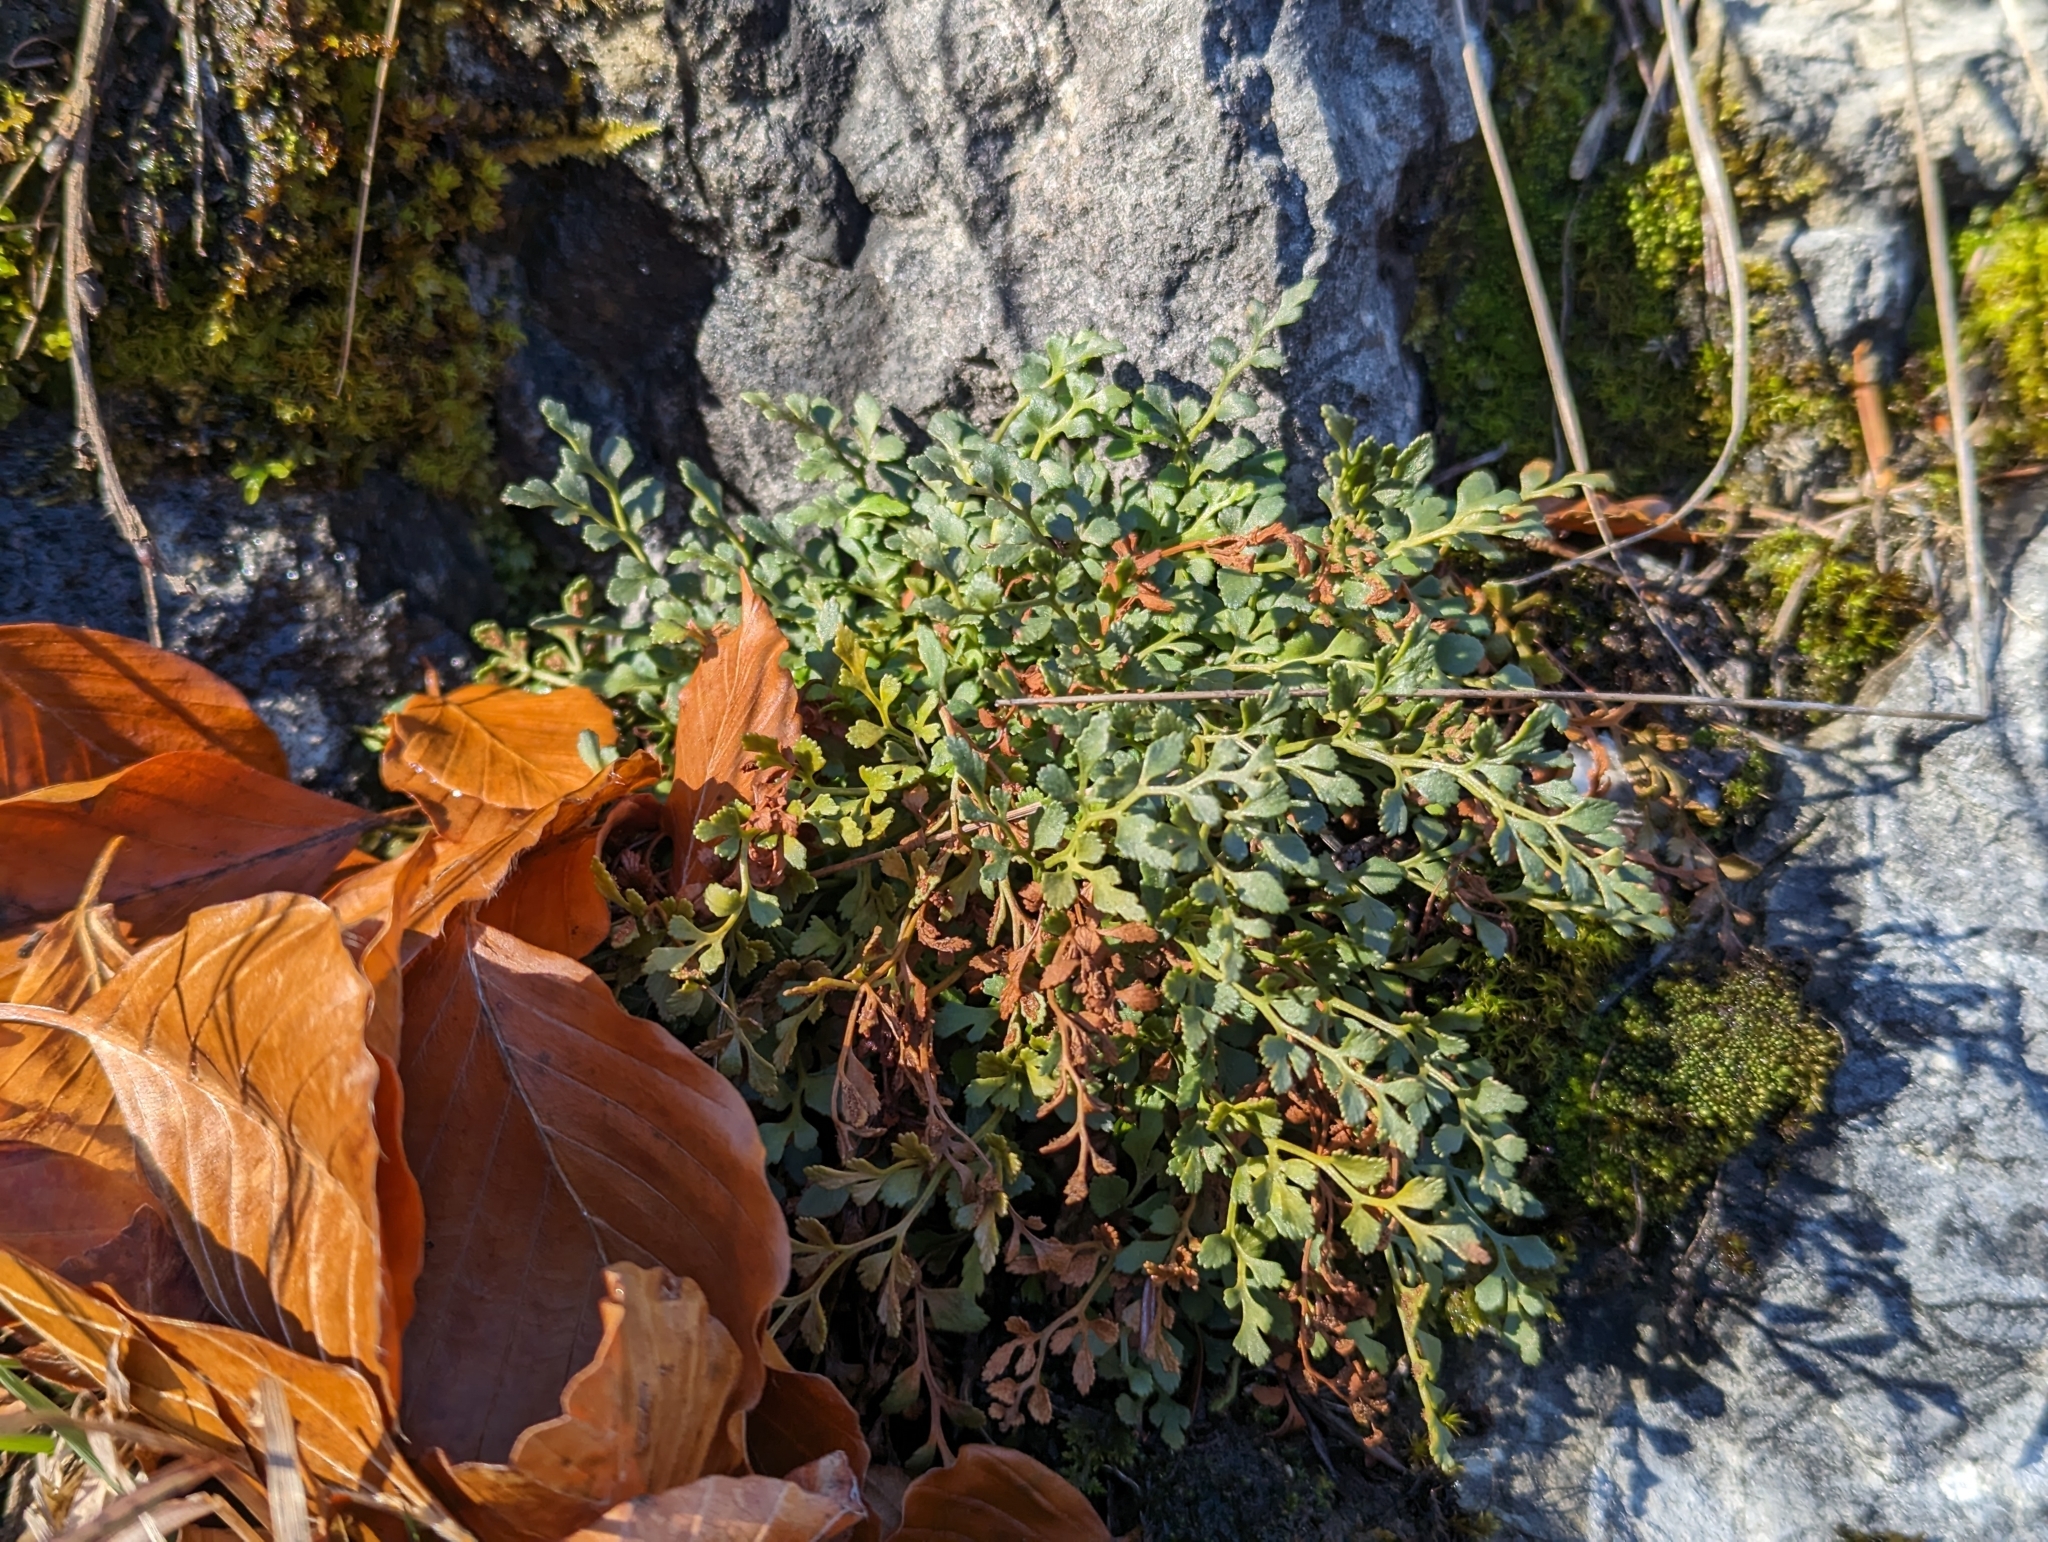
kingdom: Plantae
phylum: Tracheophyta
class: Polypodiopsida
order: Polypodiales
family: Aspleniaceae
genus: Asplenium
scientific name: Asplenium ruta-muraria
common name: Wall-rue
